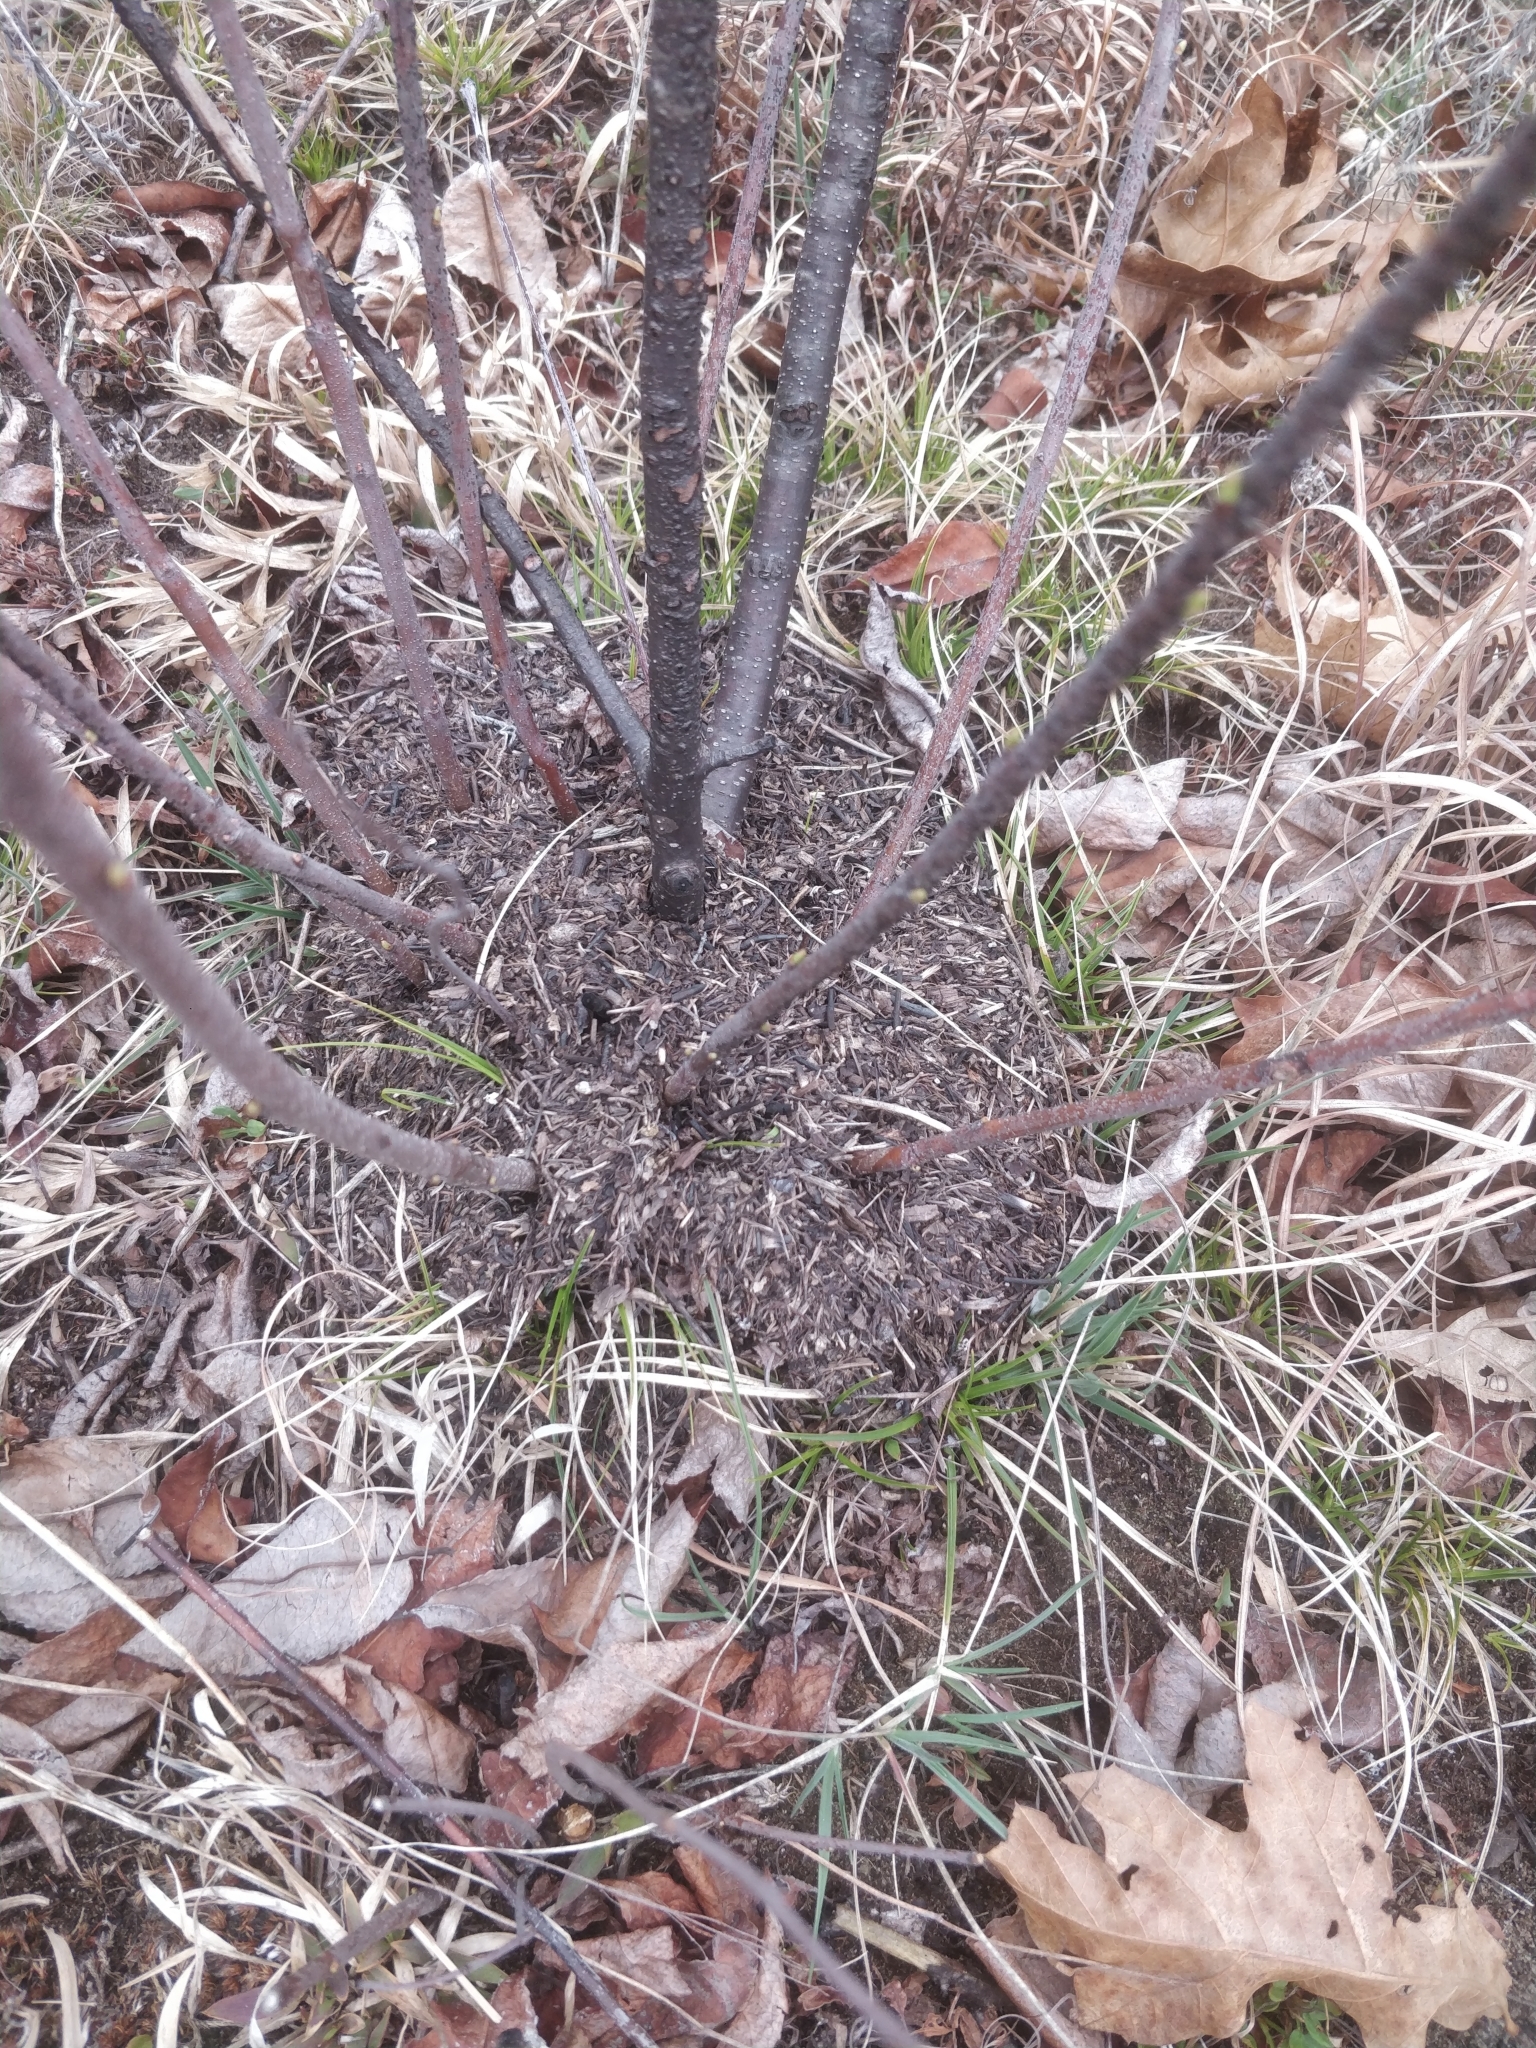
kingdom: Animalia
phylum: Arthropoda
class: Insecta
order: Hymenoptera
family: Formicidae
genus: Formica
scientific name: Formica obscuriventris
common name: Northern red wood ant
